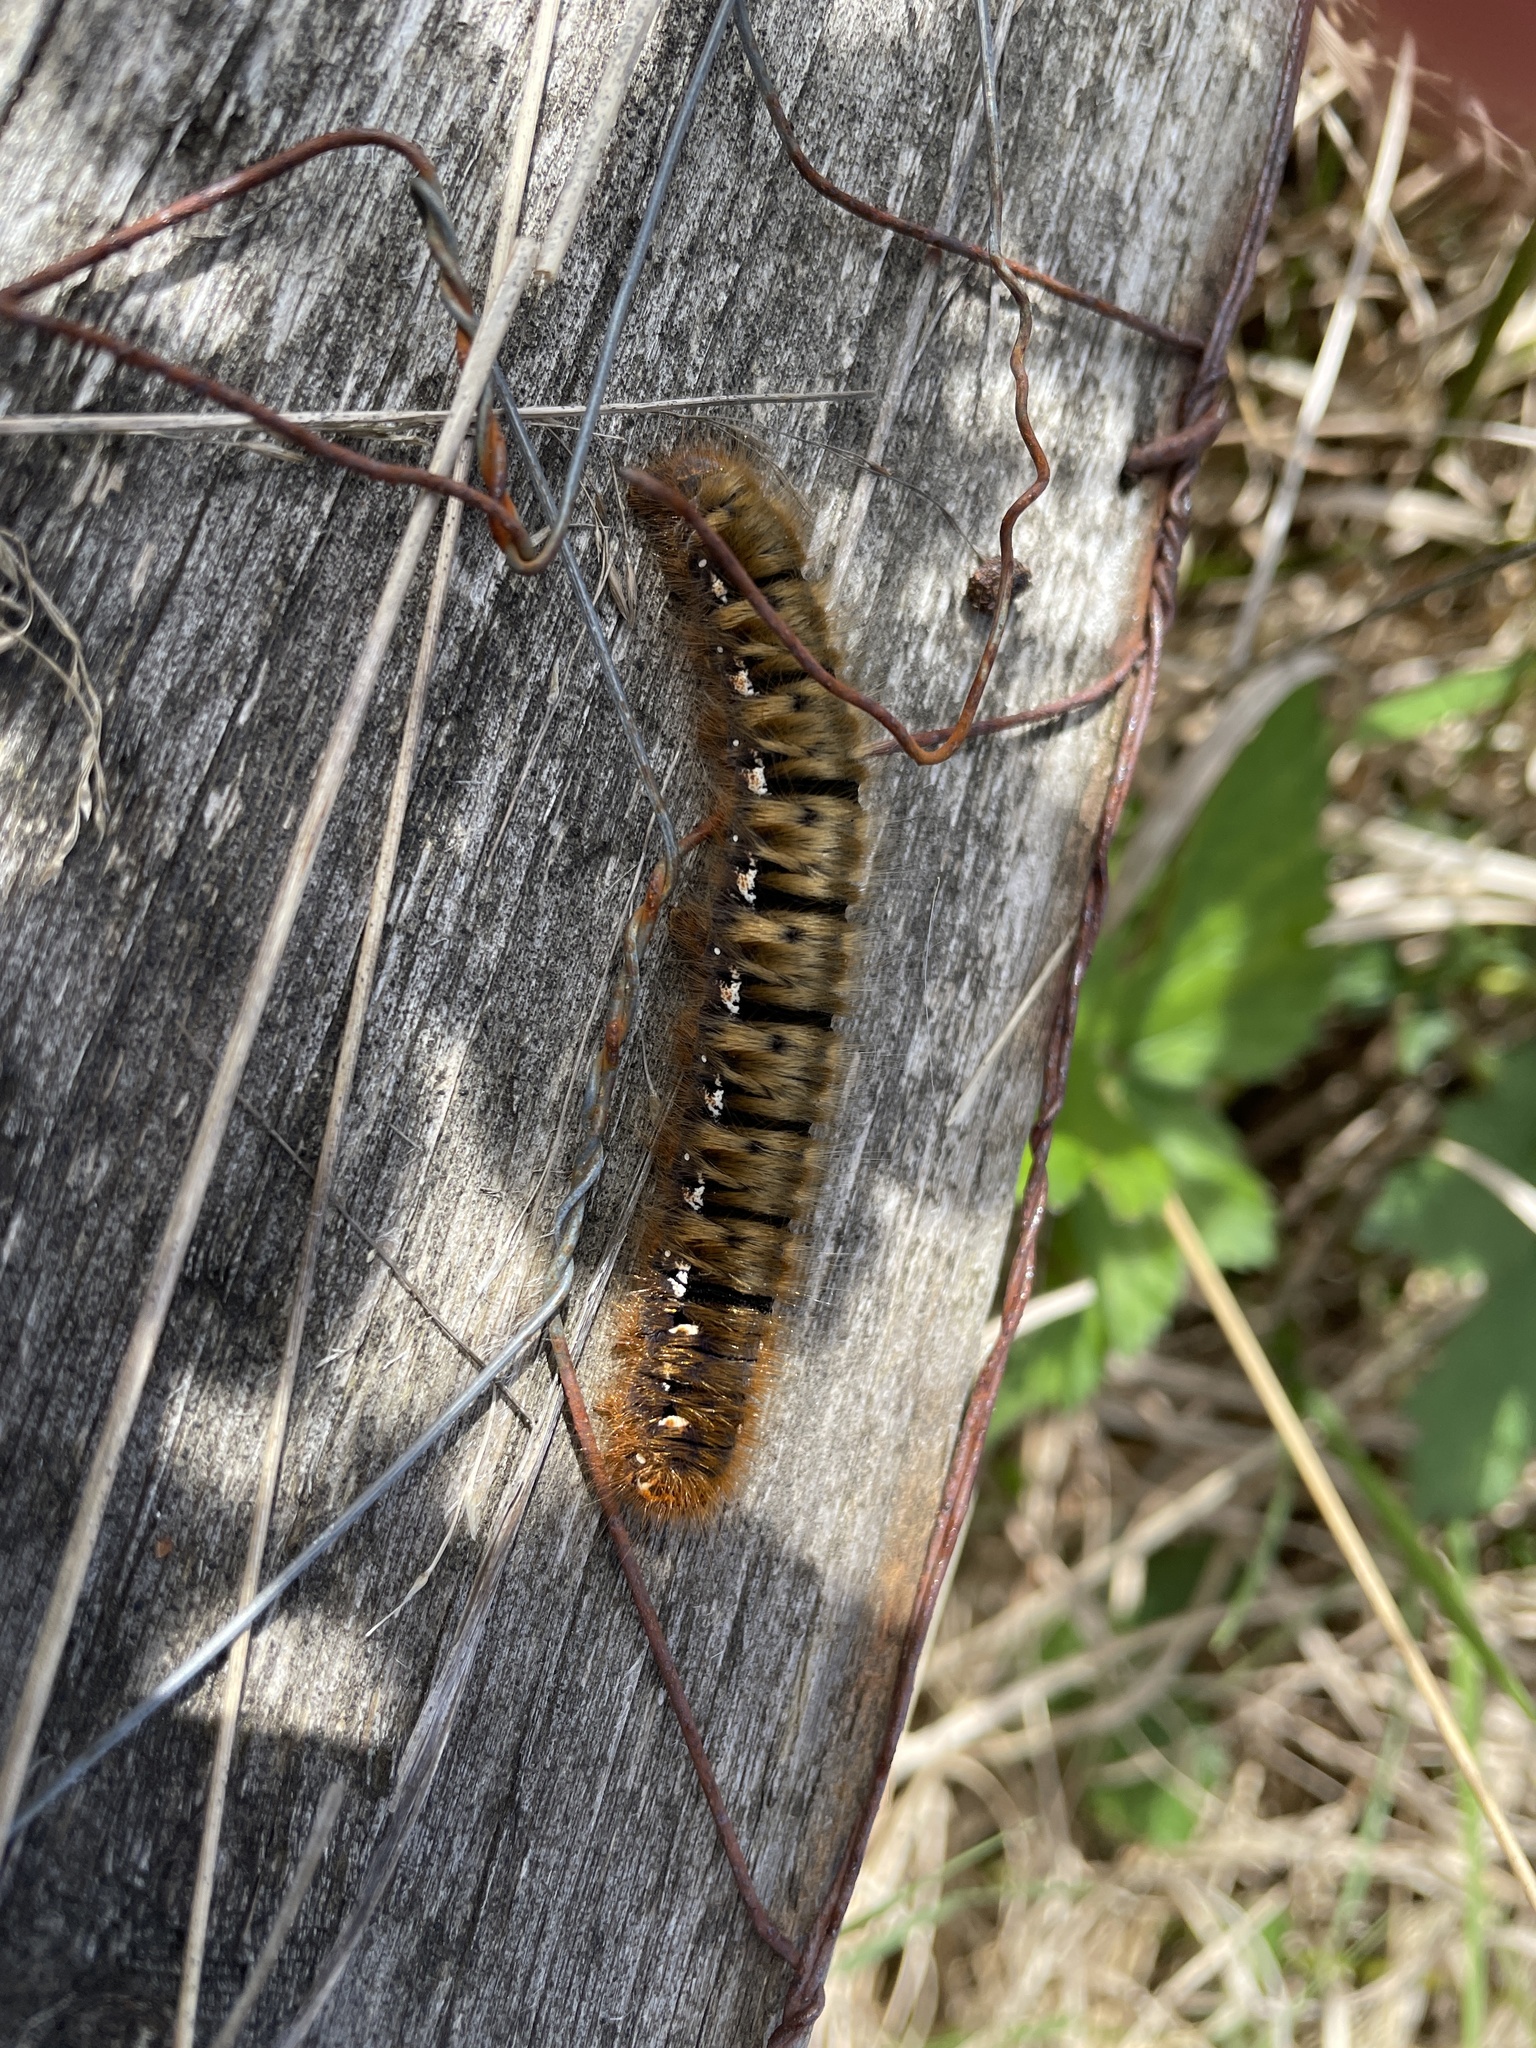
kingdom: Animalia
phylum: Arthropoda
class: Insecta
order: Lepidoptera
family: Lasiocampidae
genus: Lasiocampa
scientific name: Lasiocampa quercus
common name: Oak eggar
